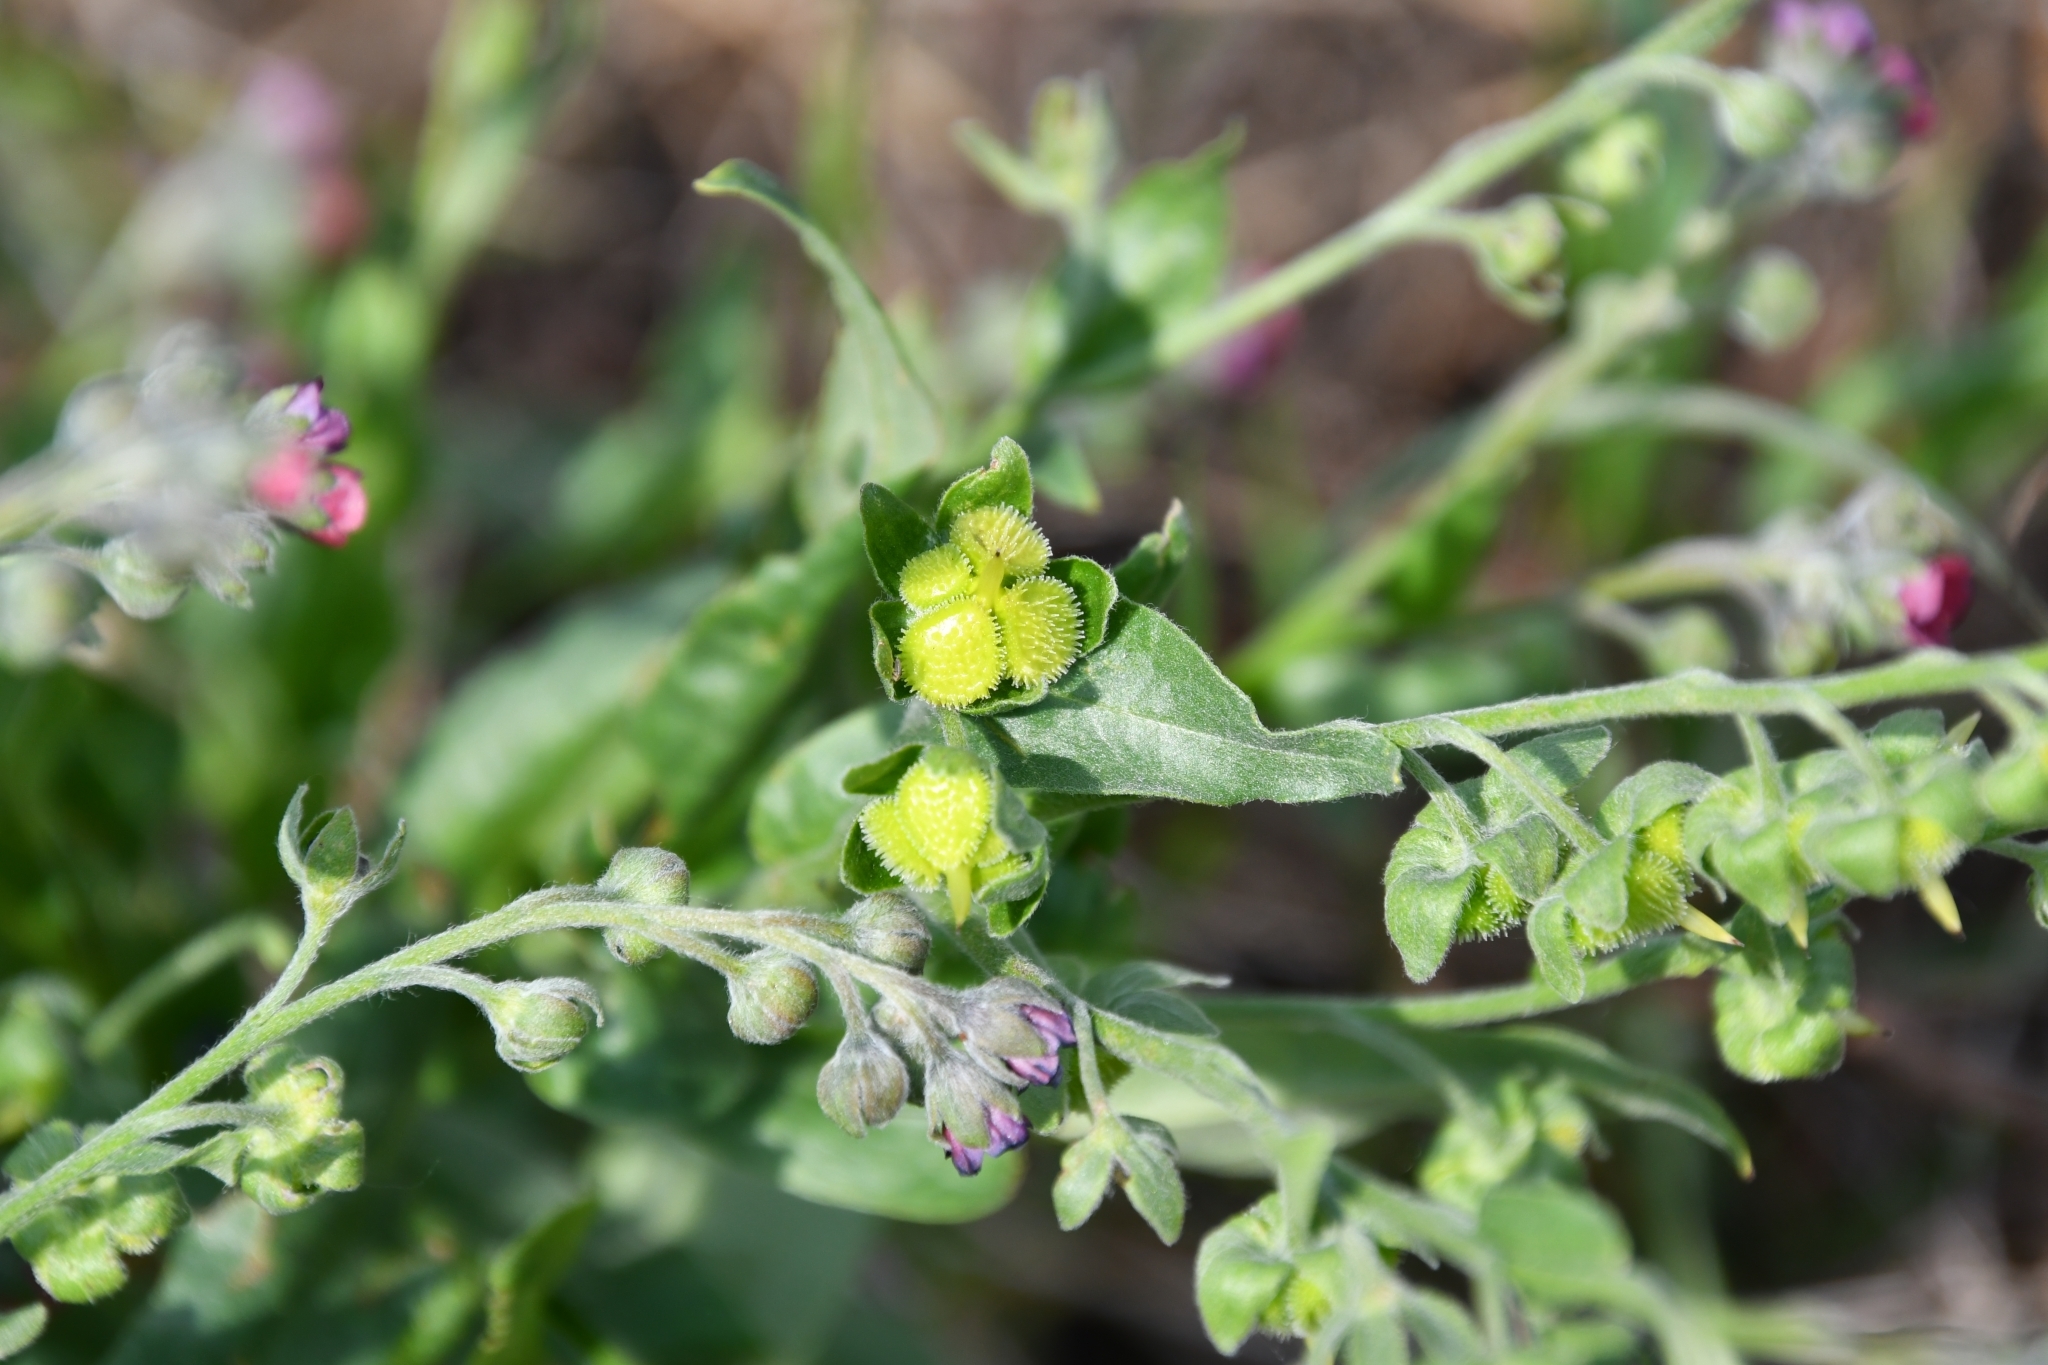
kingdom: Plantae
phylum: Tracheophyta
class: Magnoliopsida
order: Boraginales
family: Boraginaceae
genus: Cynoglossum
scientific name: Cynoglossum officinale
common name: Hound's-tongue
